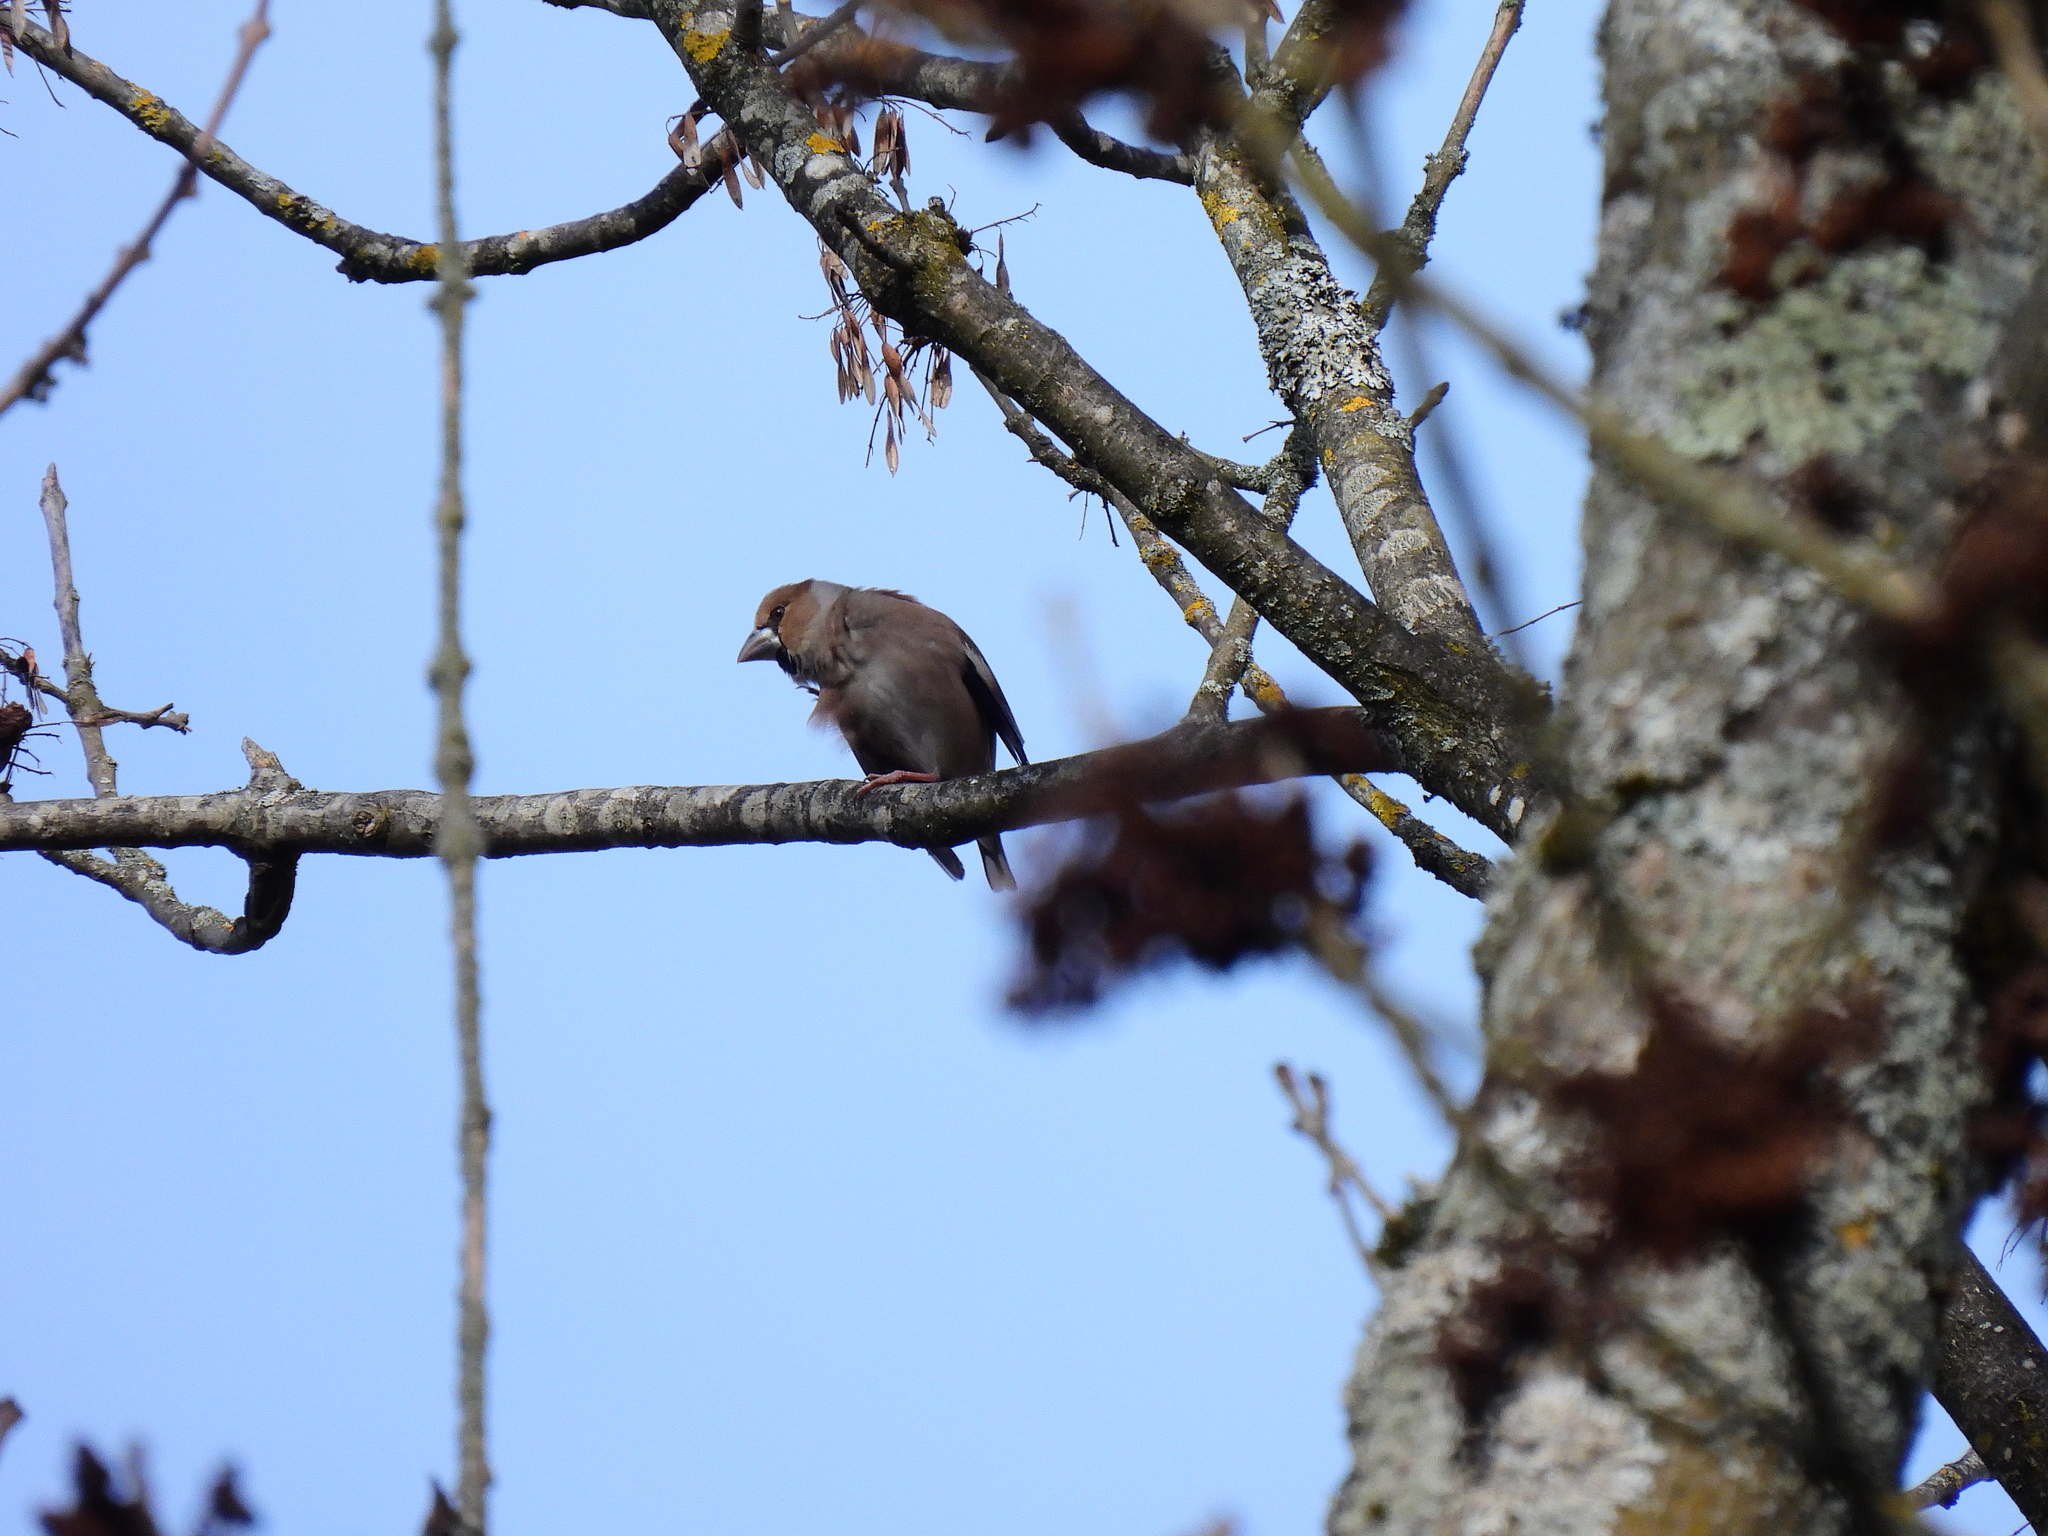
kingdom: Animalia
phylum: Chordata
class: Aves
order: Passeriformes
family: Fringillidae
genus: Coccothraustes
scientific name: Coccothraustes coccothraustes
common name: Hawfinch
